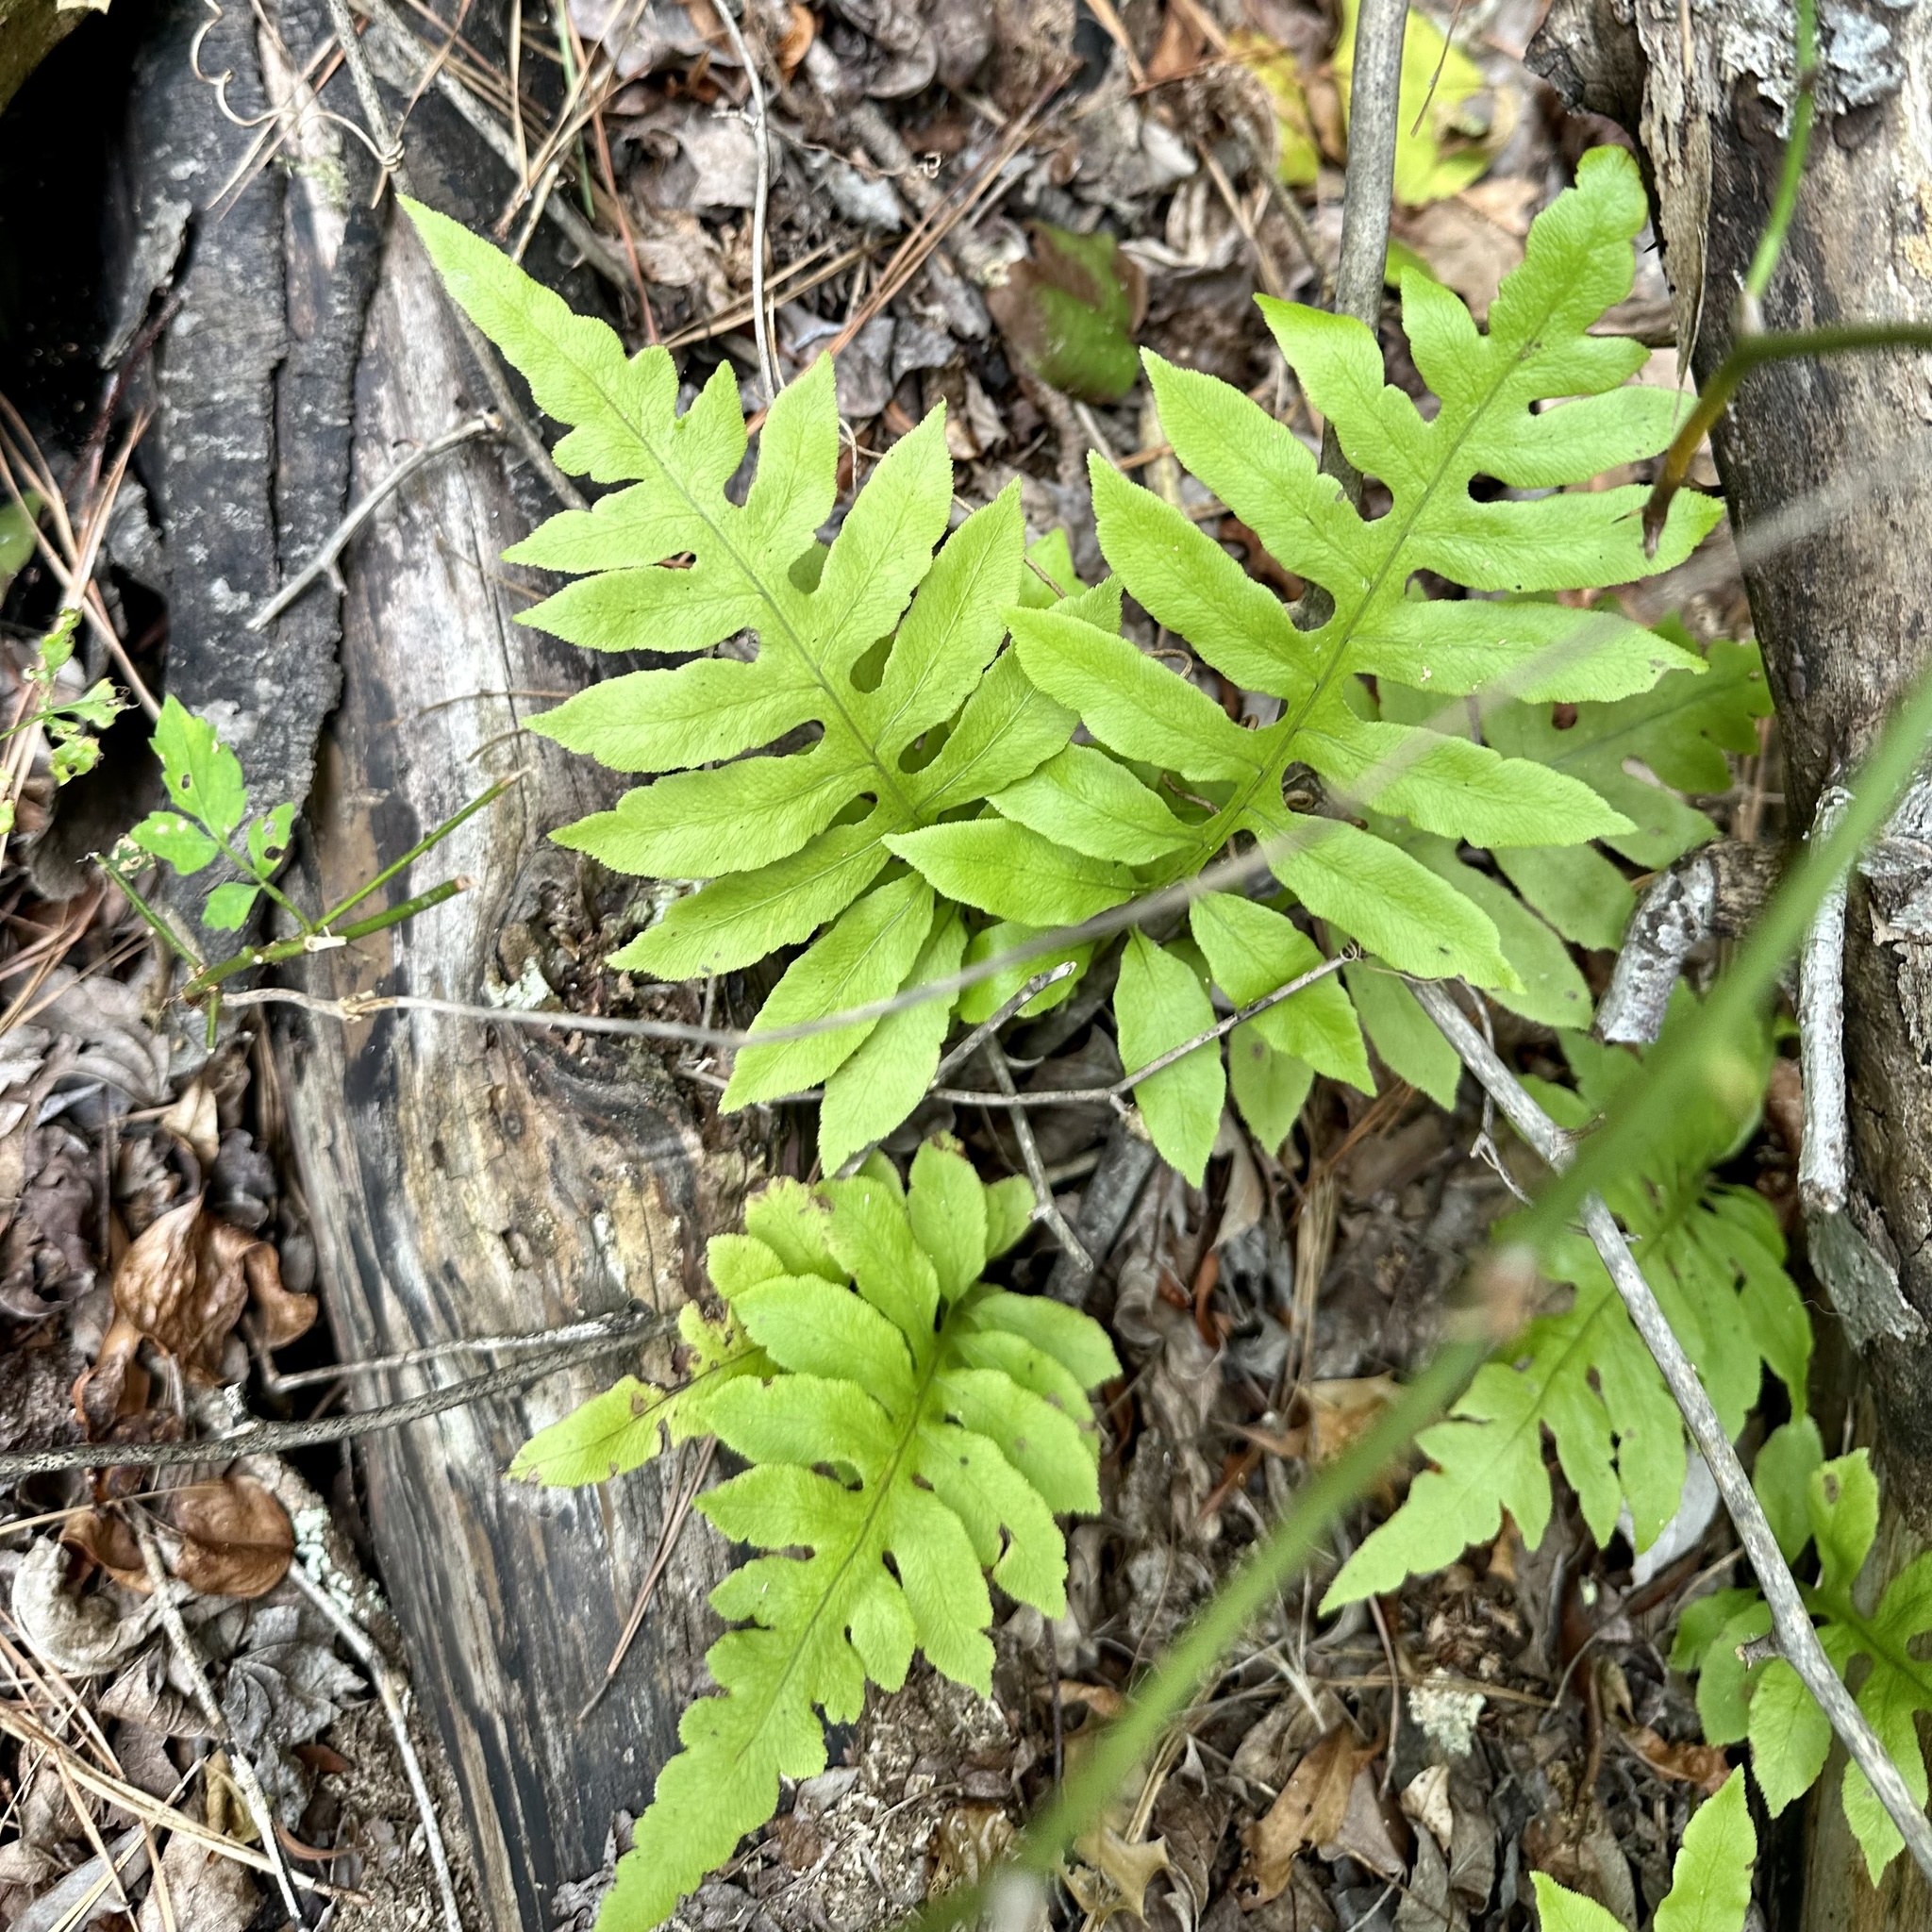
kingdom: Plantae
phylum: Tracheophyta
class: Polypodiopsida
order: Polypodiales
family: Blechnaceae
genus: Lorinseria
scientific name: Lorinseria areolata
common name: Dwarf chain fern
